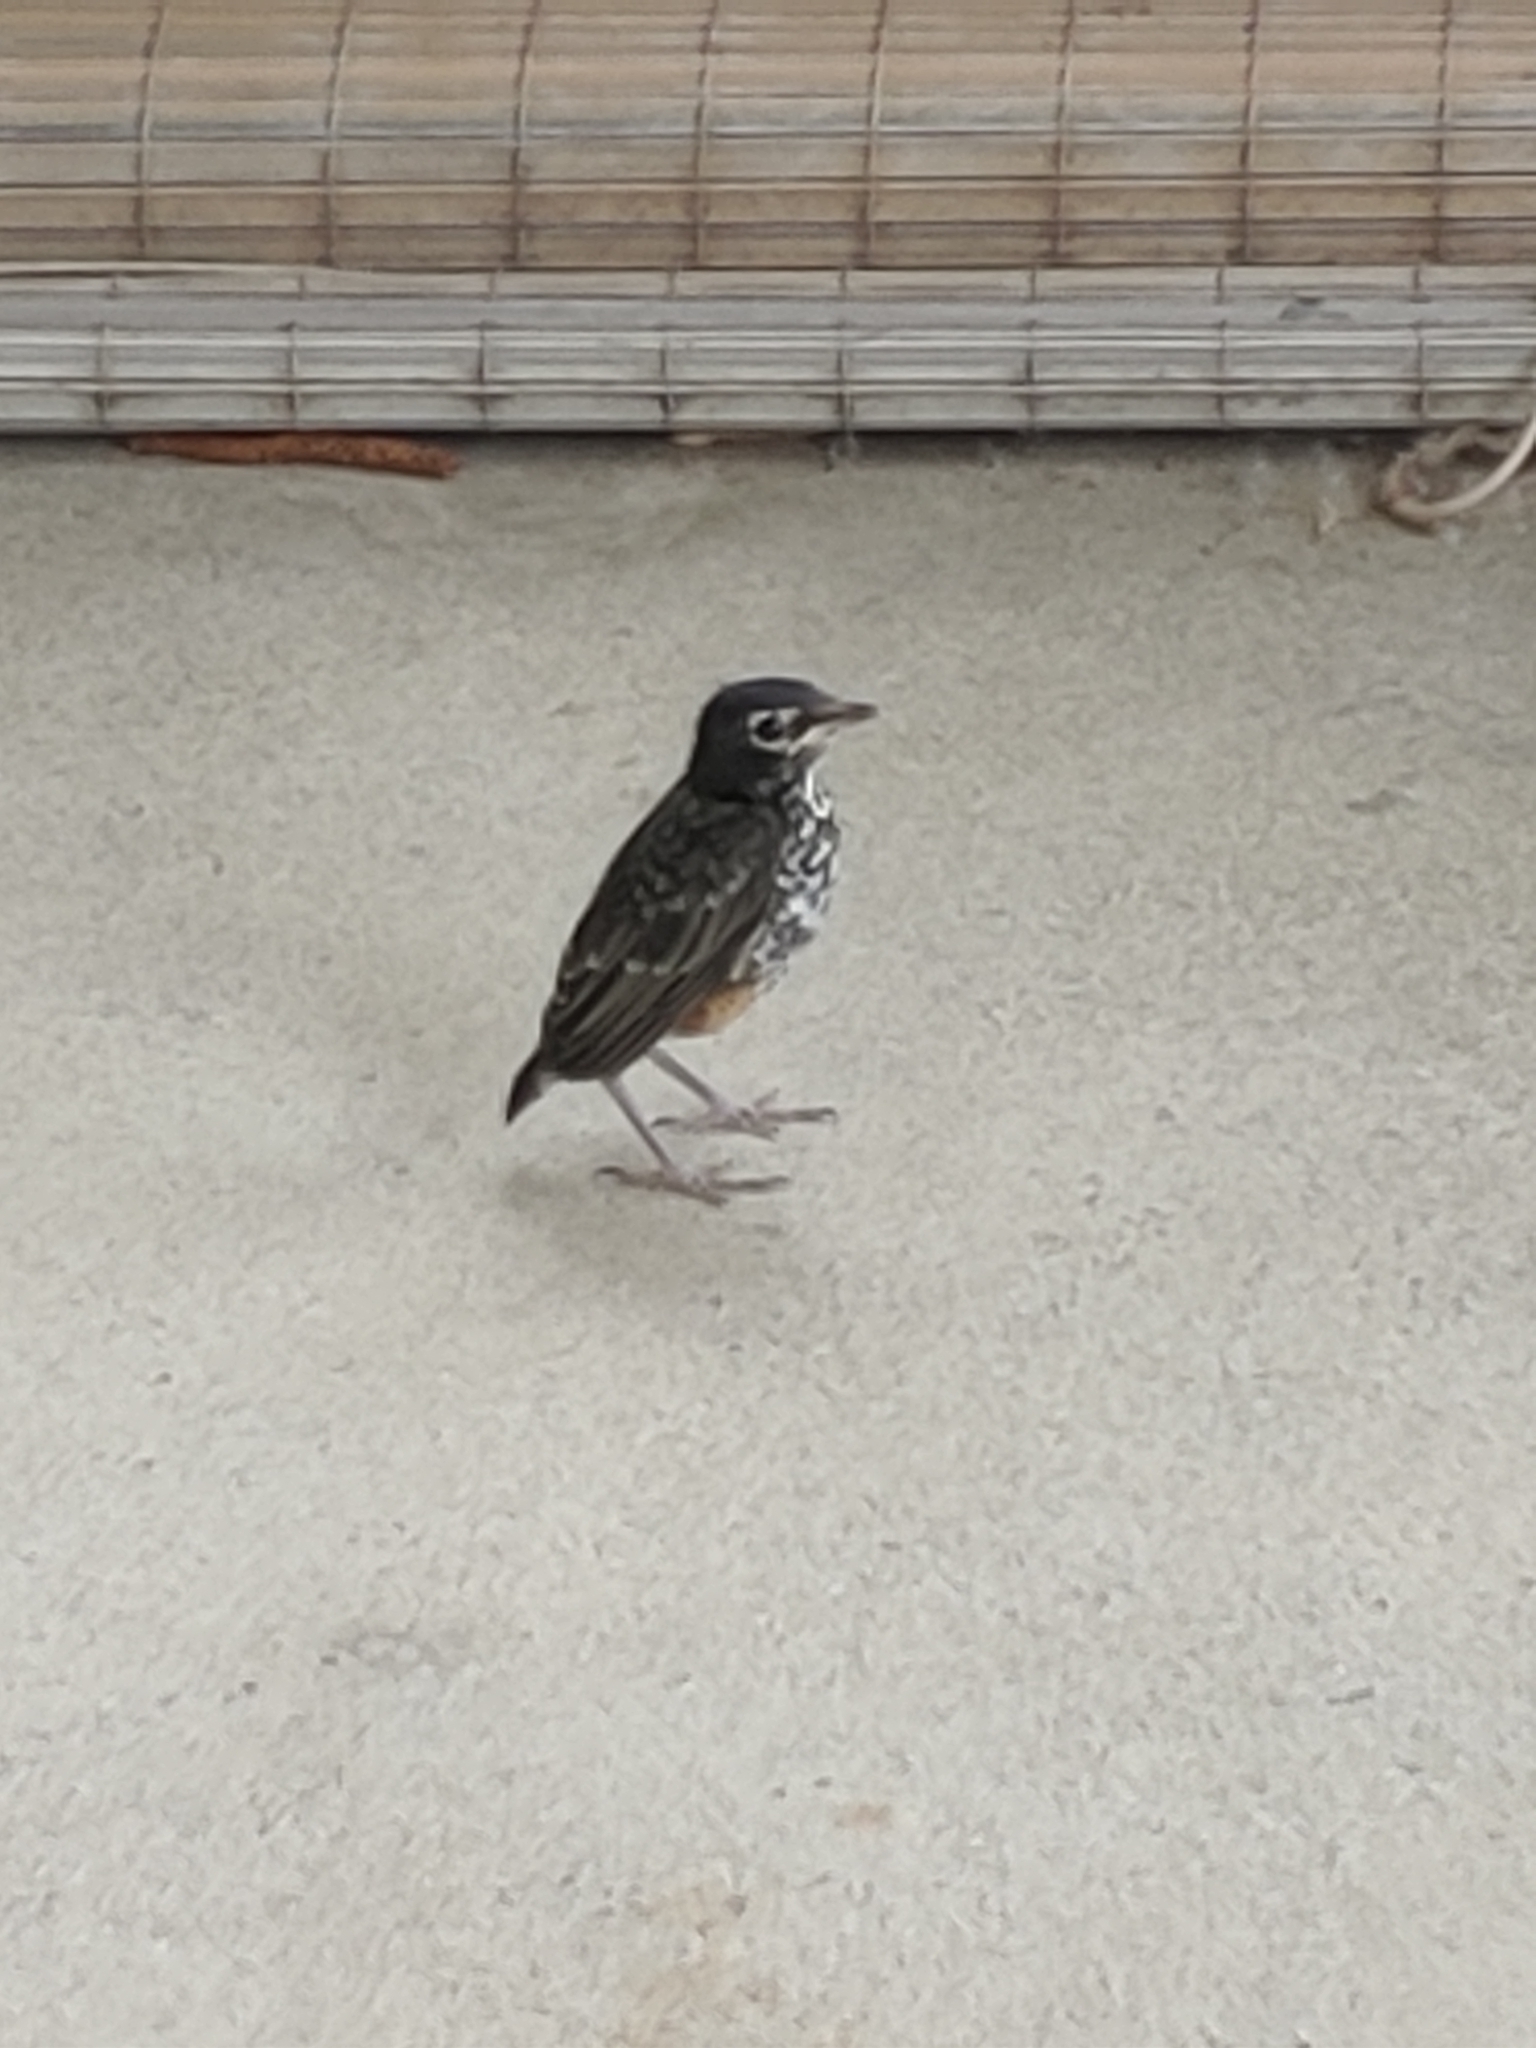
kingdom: Animalia
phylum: Chordata
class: Aves
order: Passeriformes
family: Turdidae
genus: Turdus
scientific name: Turdus migratorius
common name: American robin
